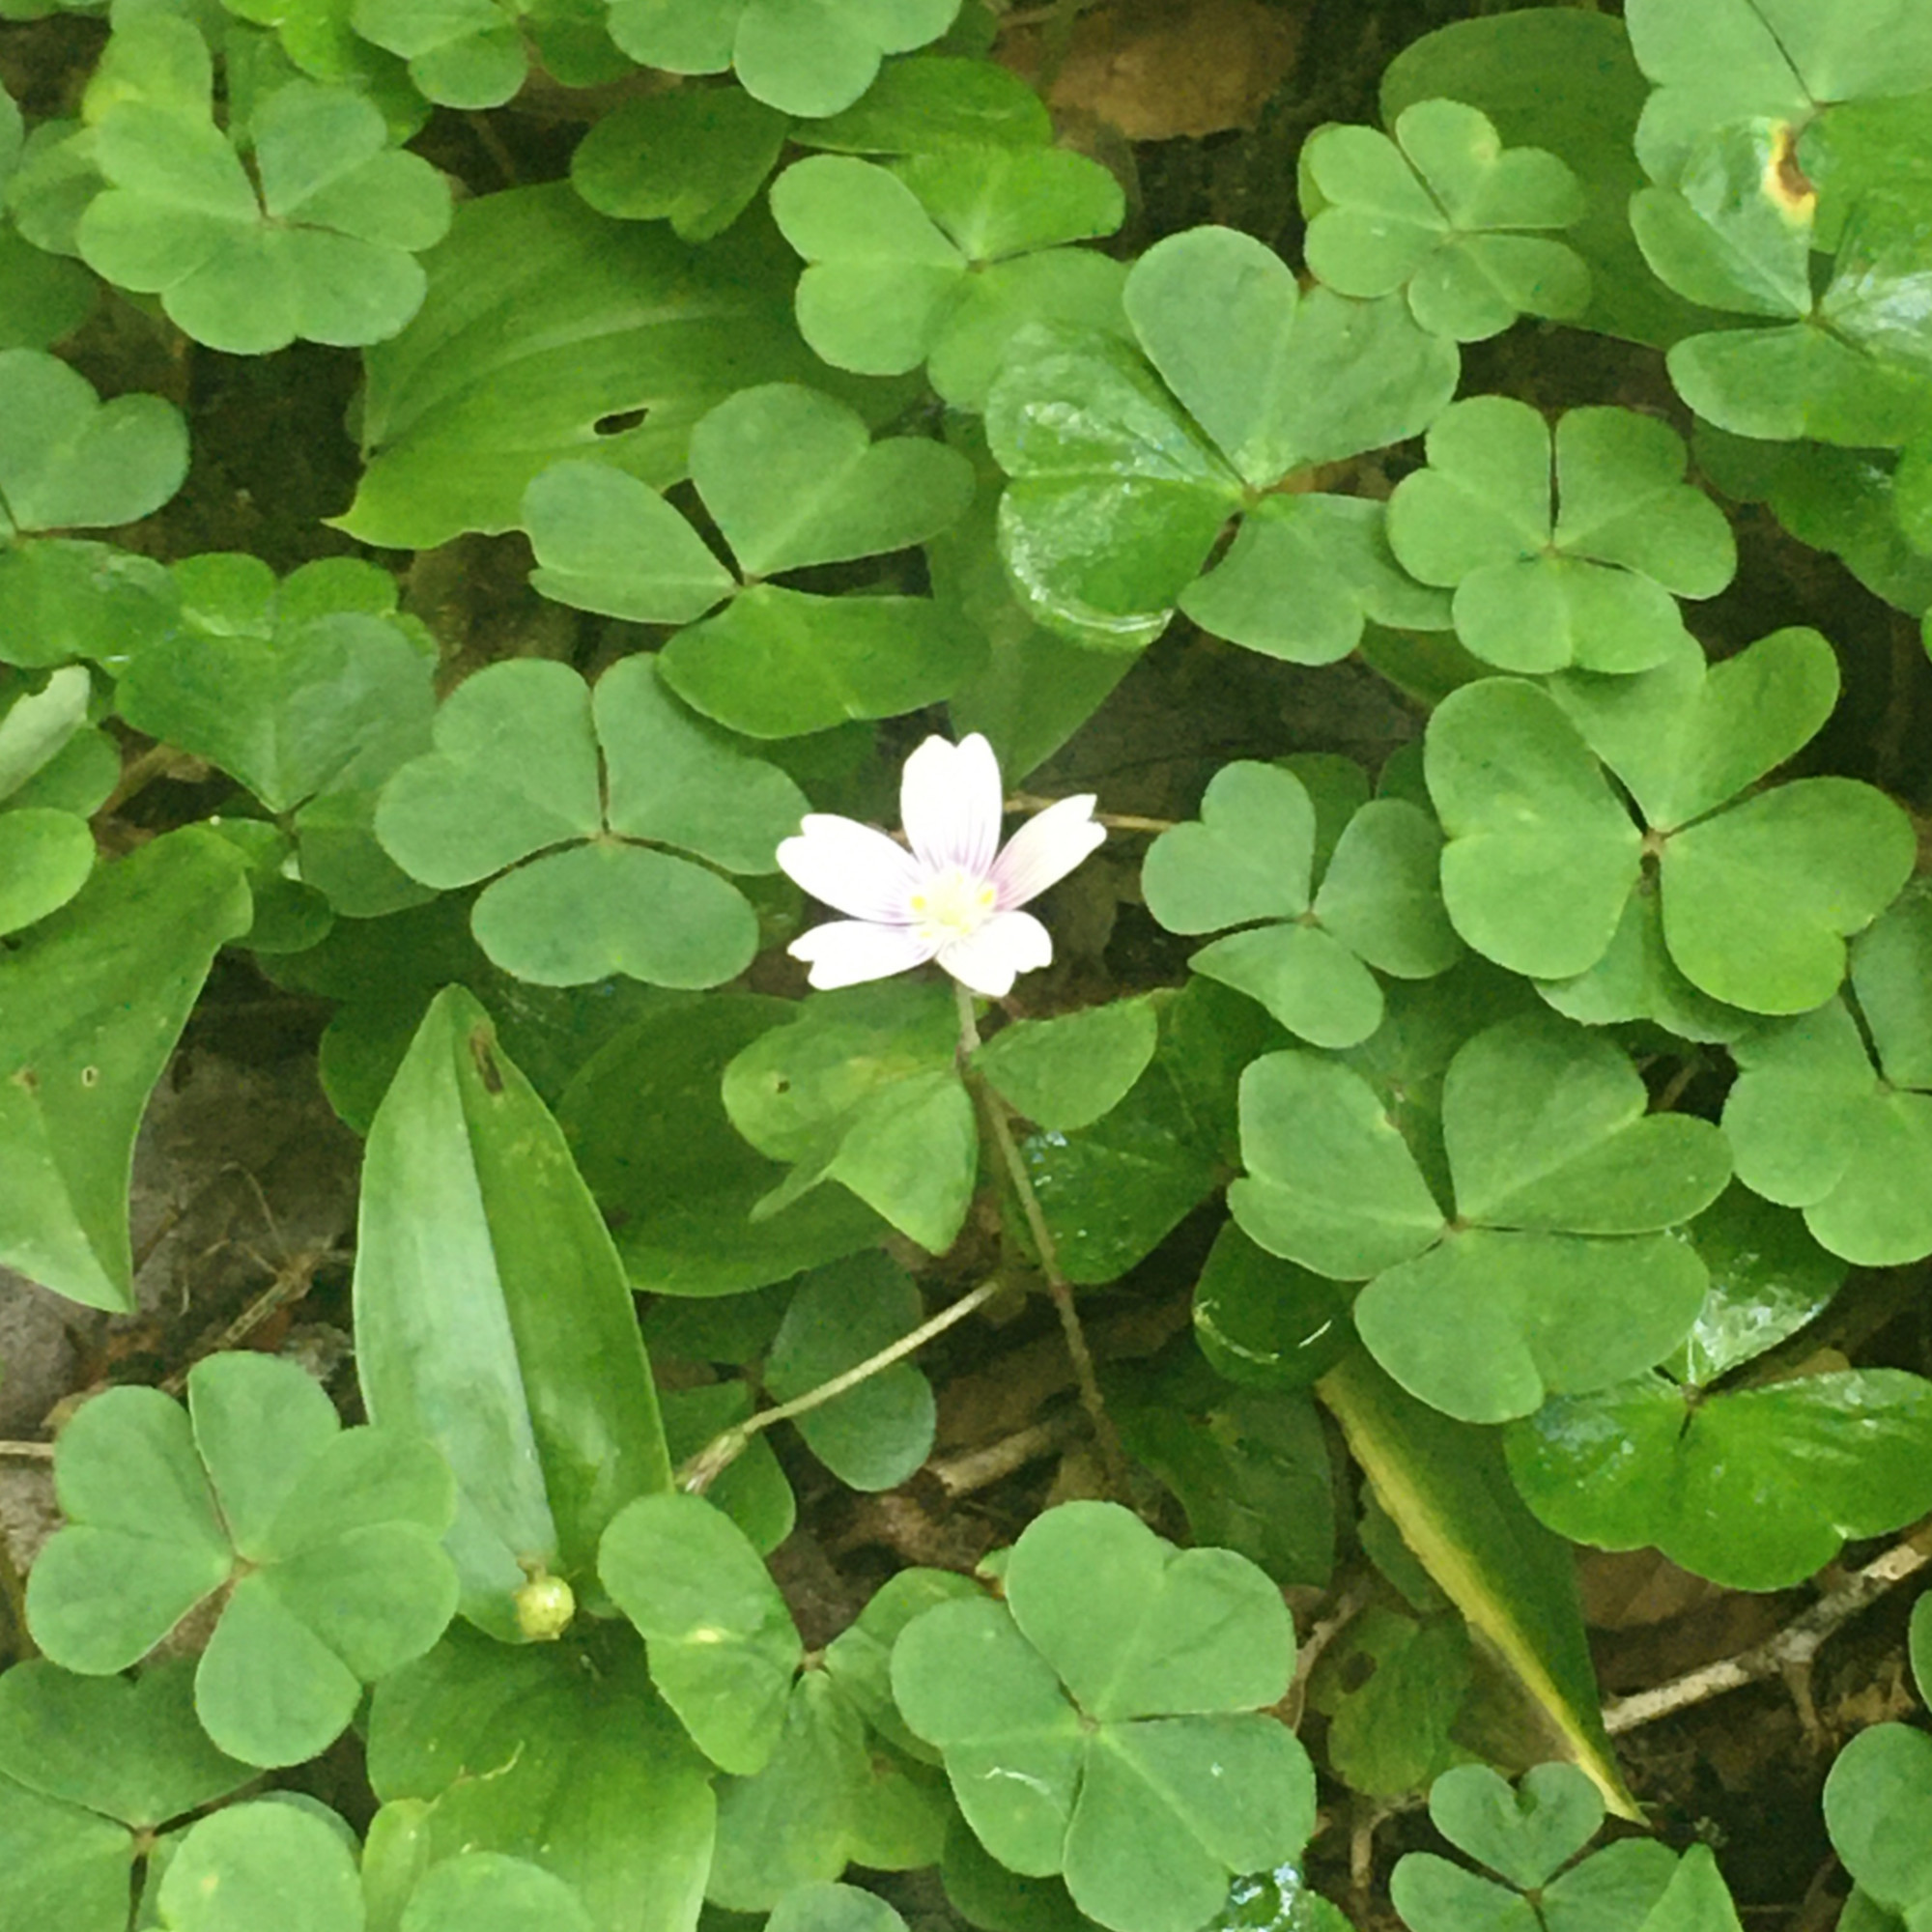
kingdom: Plantae
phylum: Tracheophyta
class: Magnoliopsida
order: Oxalidales
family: Oxalidaceae
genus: Oxalis
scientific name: Oxalis montana
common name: American wood-sorrel
